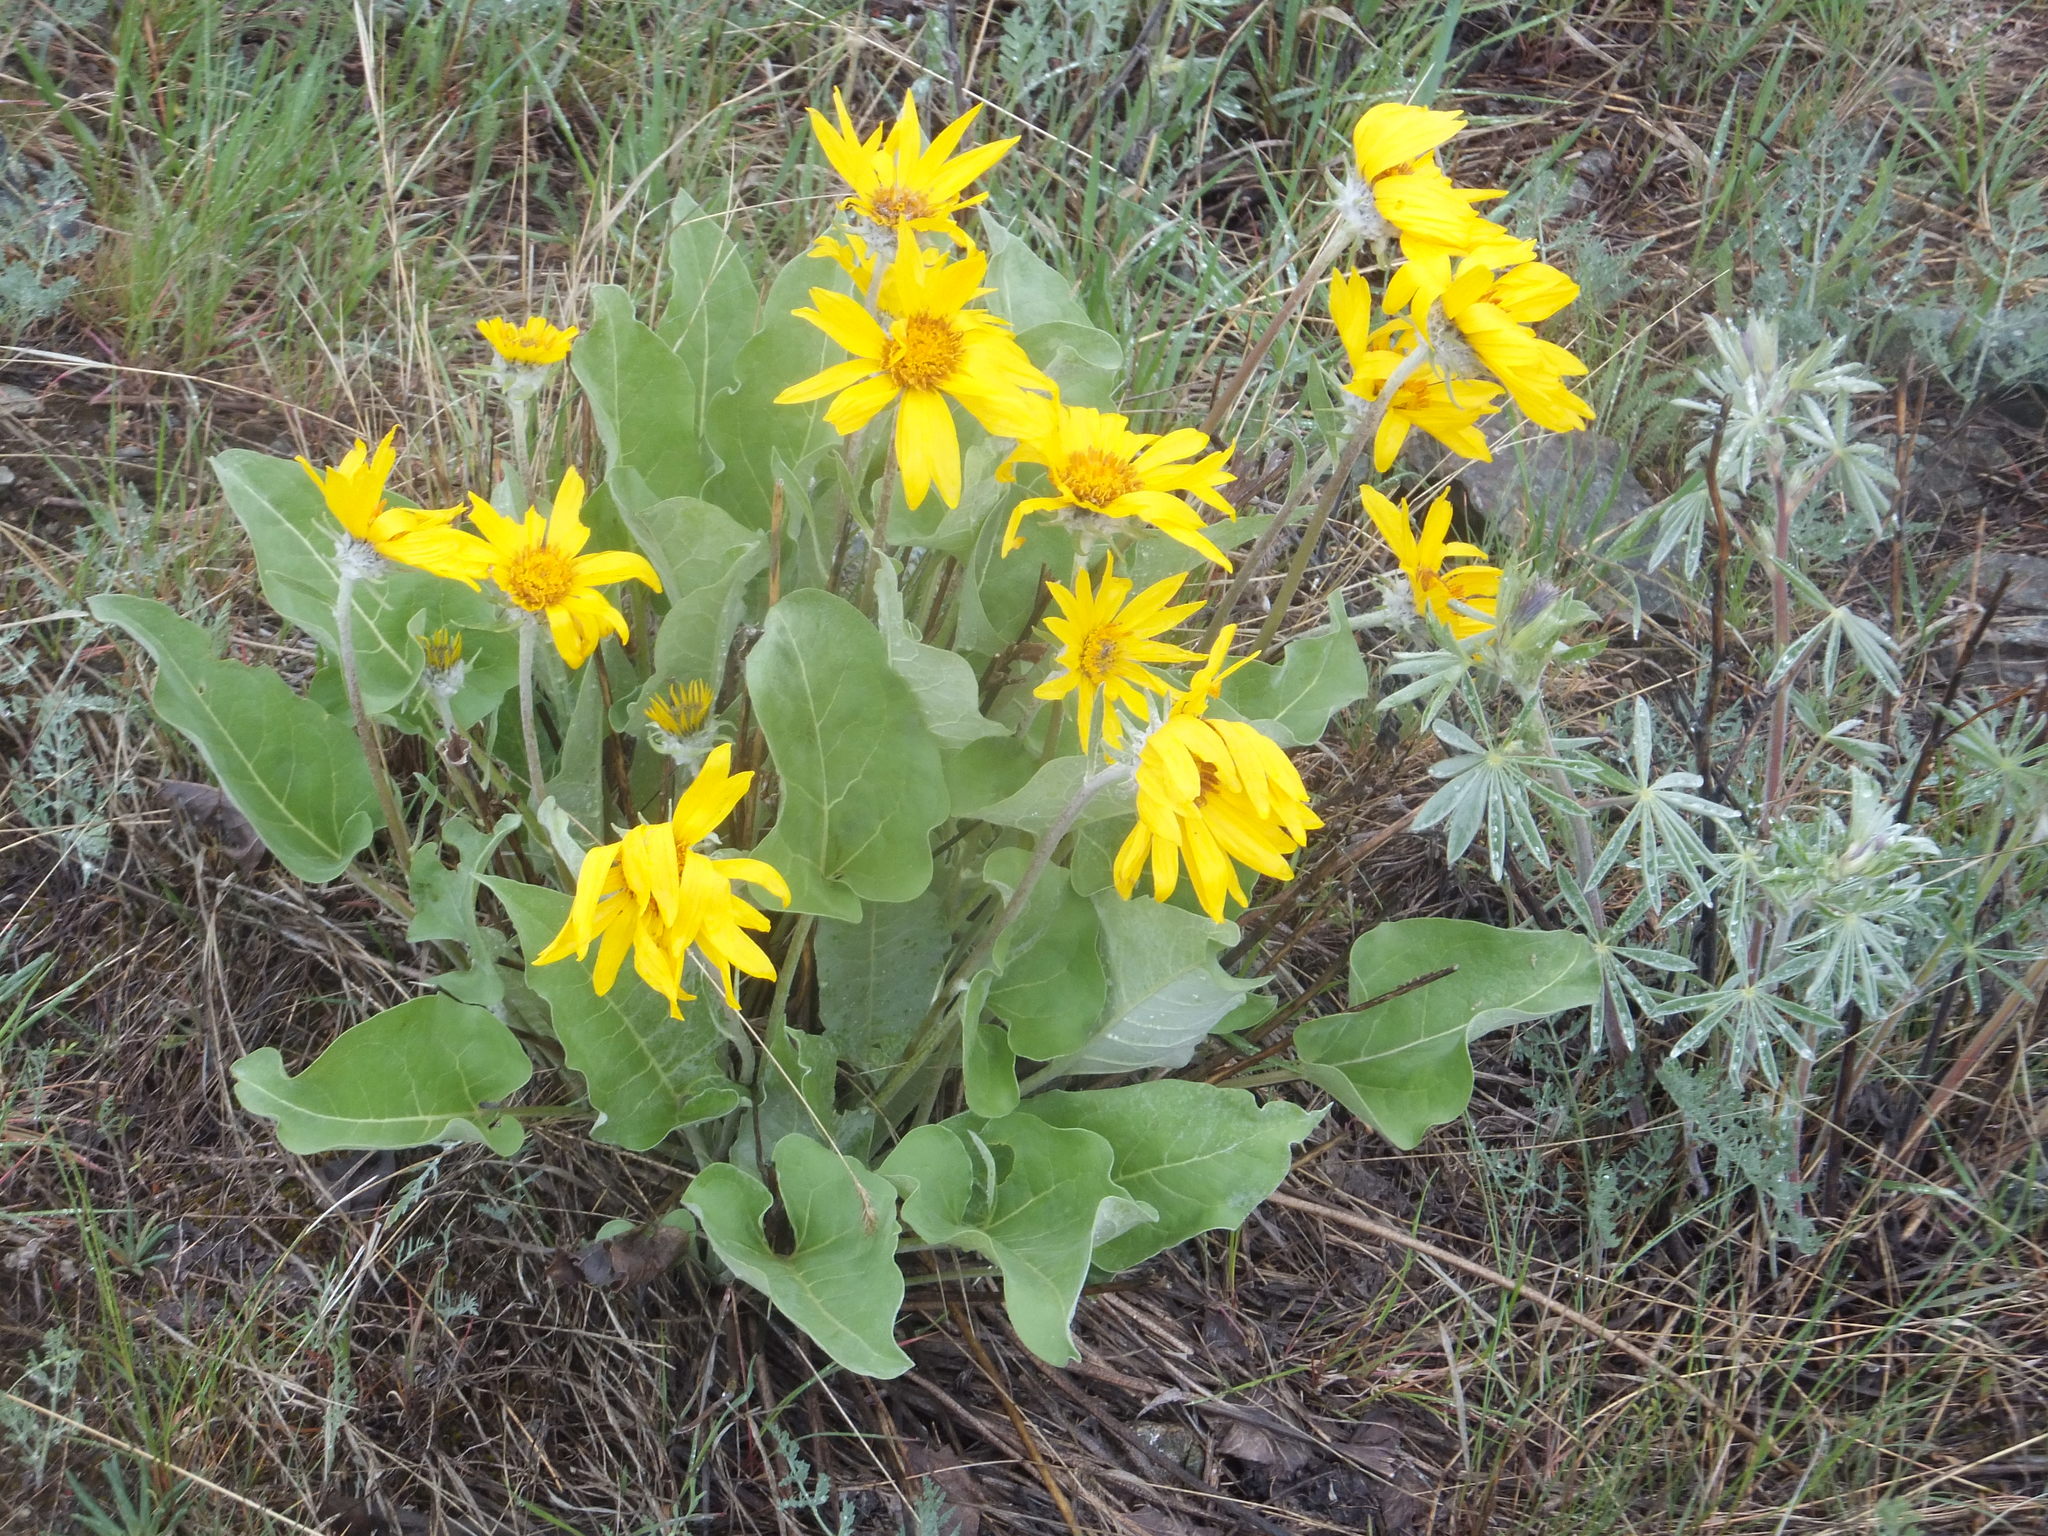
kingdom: Plantae
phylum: Tracheophyta
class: Magnoliopsida
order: Asterales
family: Asteraceae
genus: Wyethia
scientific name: Wyethia sagittata
